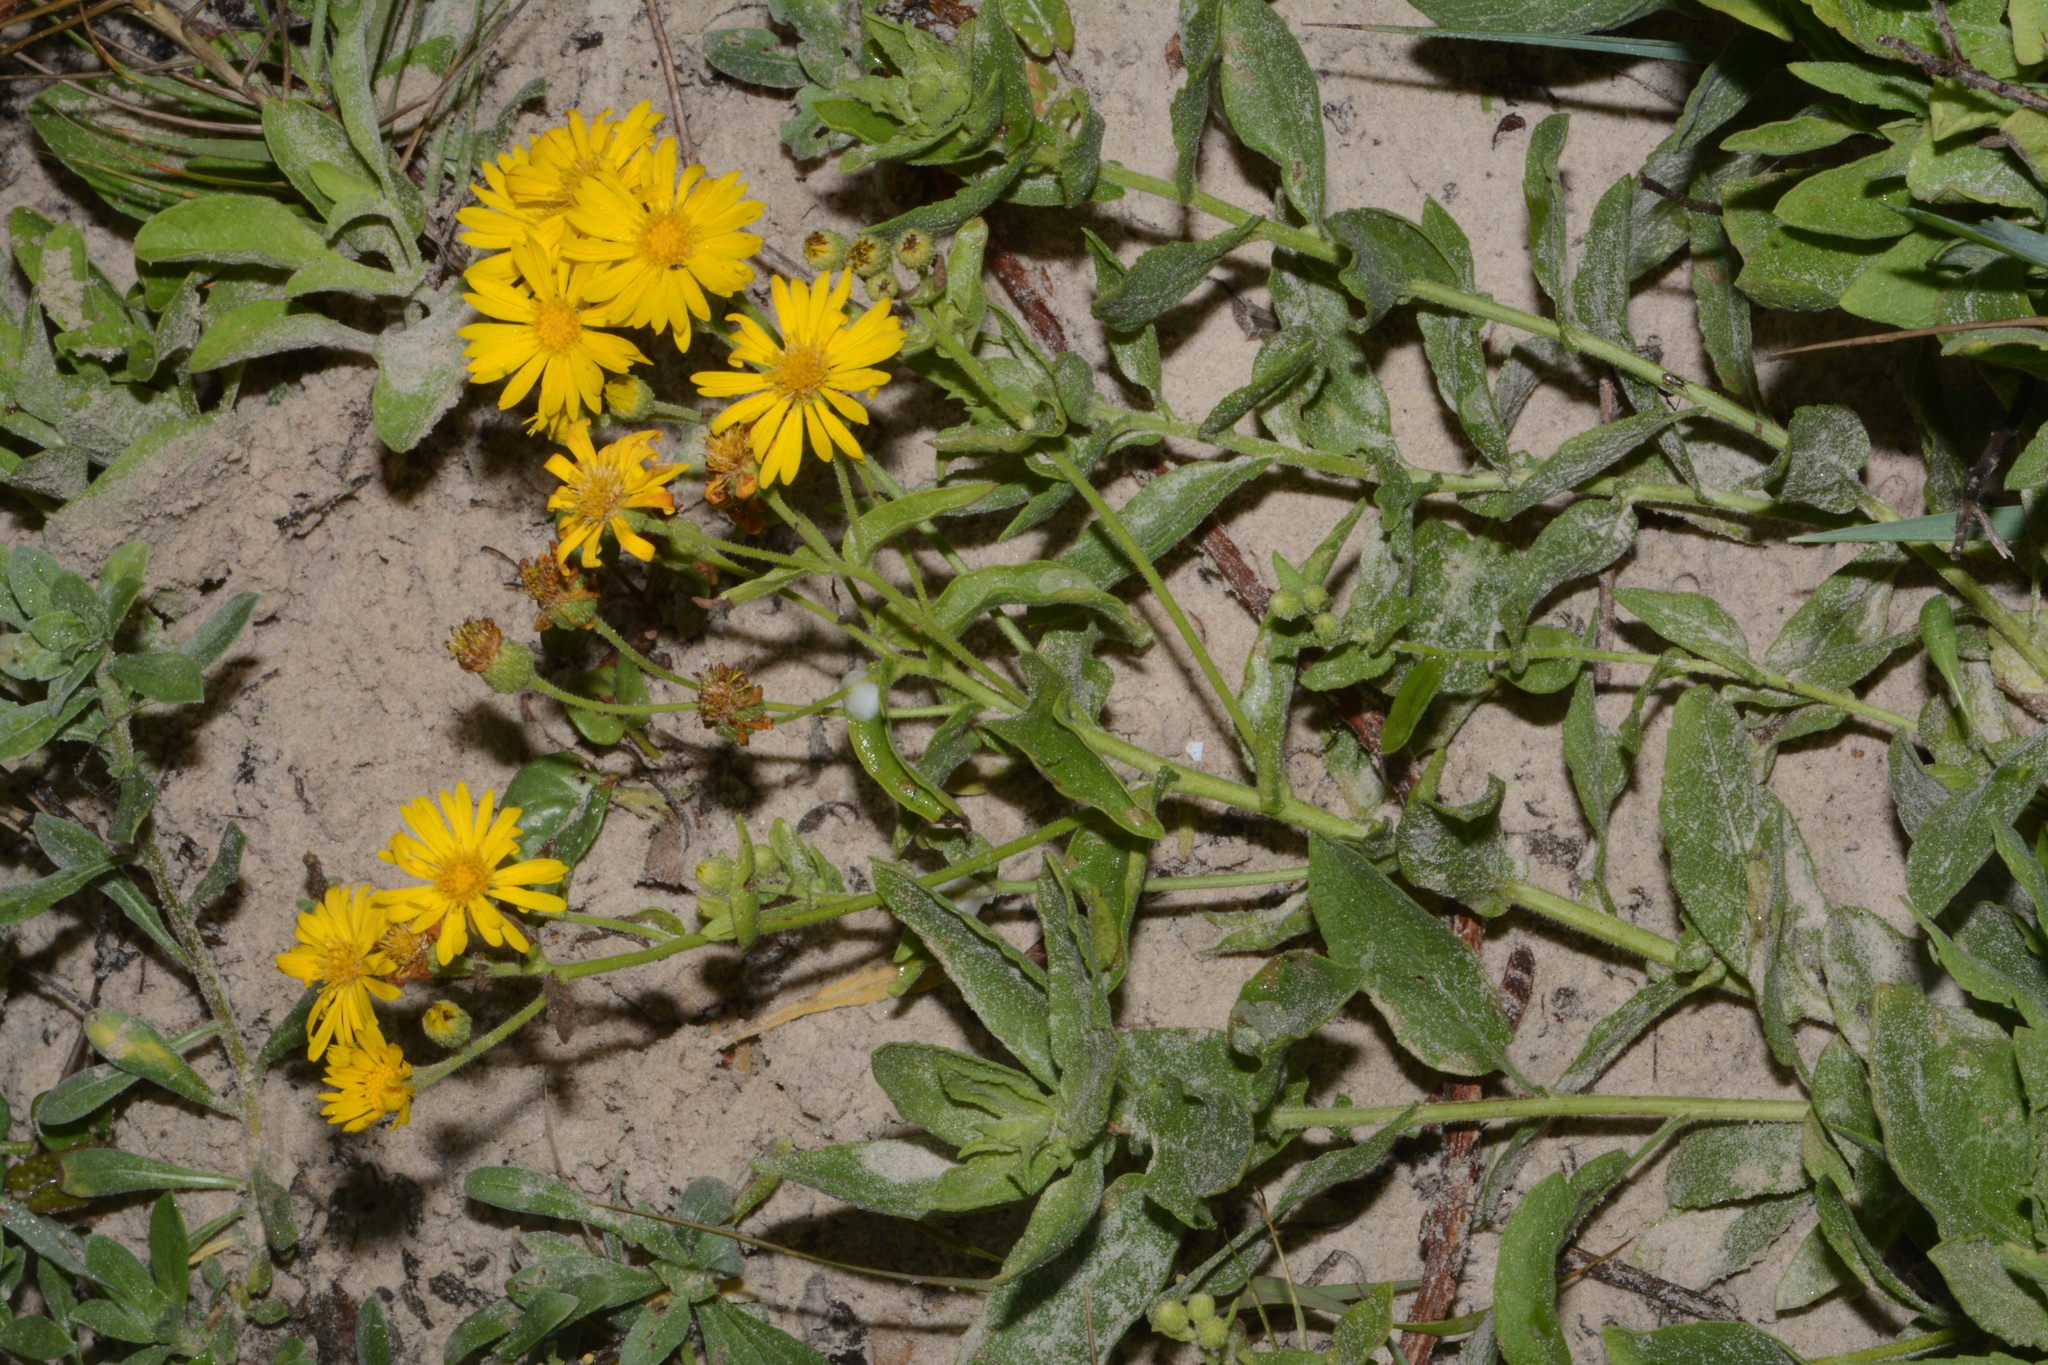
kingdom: Plantae
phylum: Tracheophyta
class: Magnoliopsida
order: Asterales
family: Asteraceae
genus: Heterotheca
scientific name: Heterotheca subaxillaris
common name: Camphorweed
